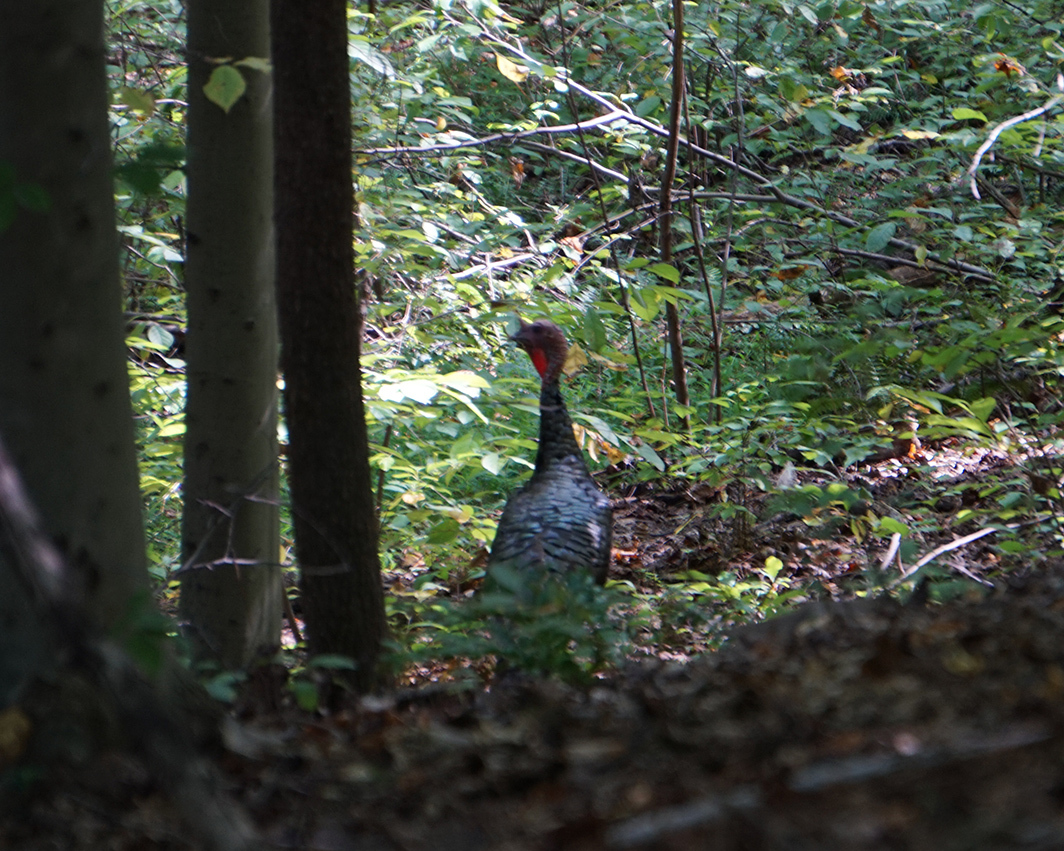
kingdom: Animalia
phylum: Chordata
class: Aves
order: Galliformes
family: Phasianidae
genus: Meleagris
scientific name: Meleagris gallopavo
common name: Wild turkey
